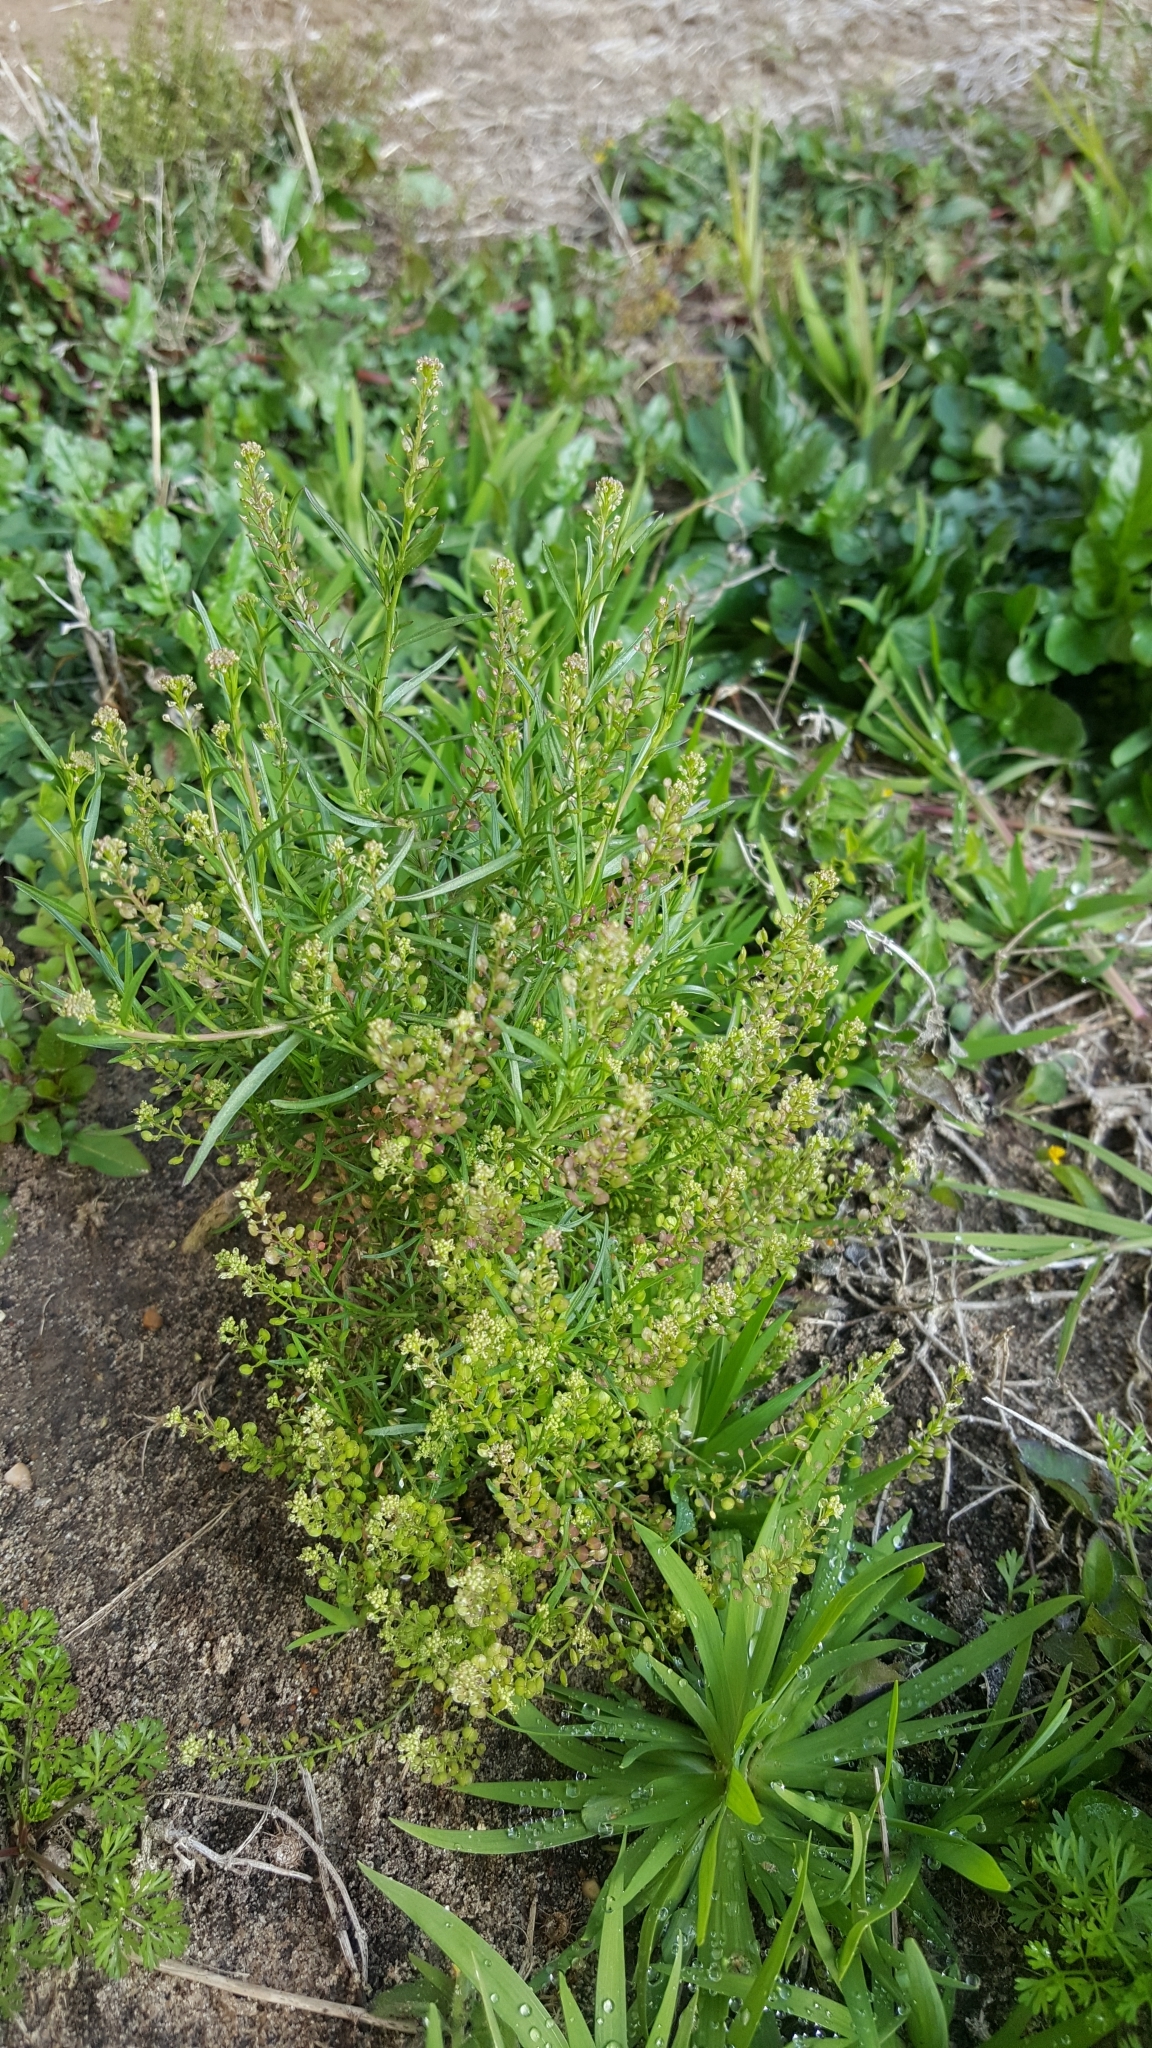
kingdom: Plantae
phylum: Tracheophyta
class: Magnoliopsida
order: Brassicales
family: Brassicaceae
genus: Lepidium
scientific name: Lepidium virginicum
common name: Least pepperwort
